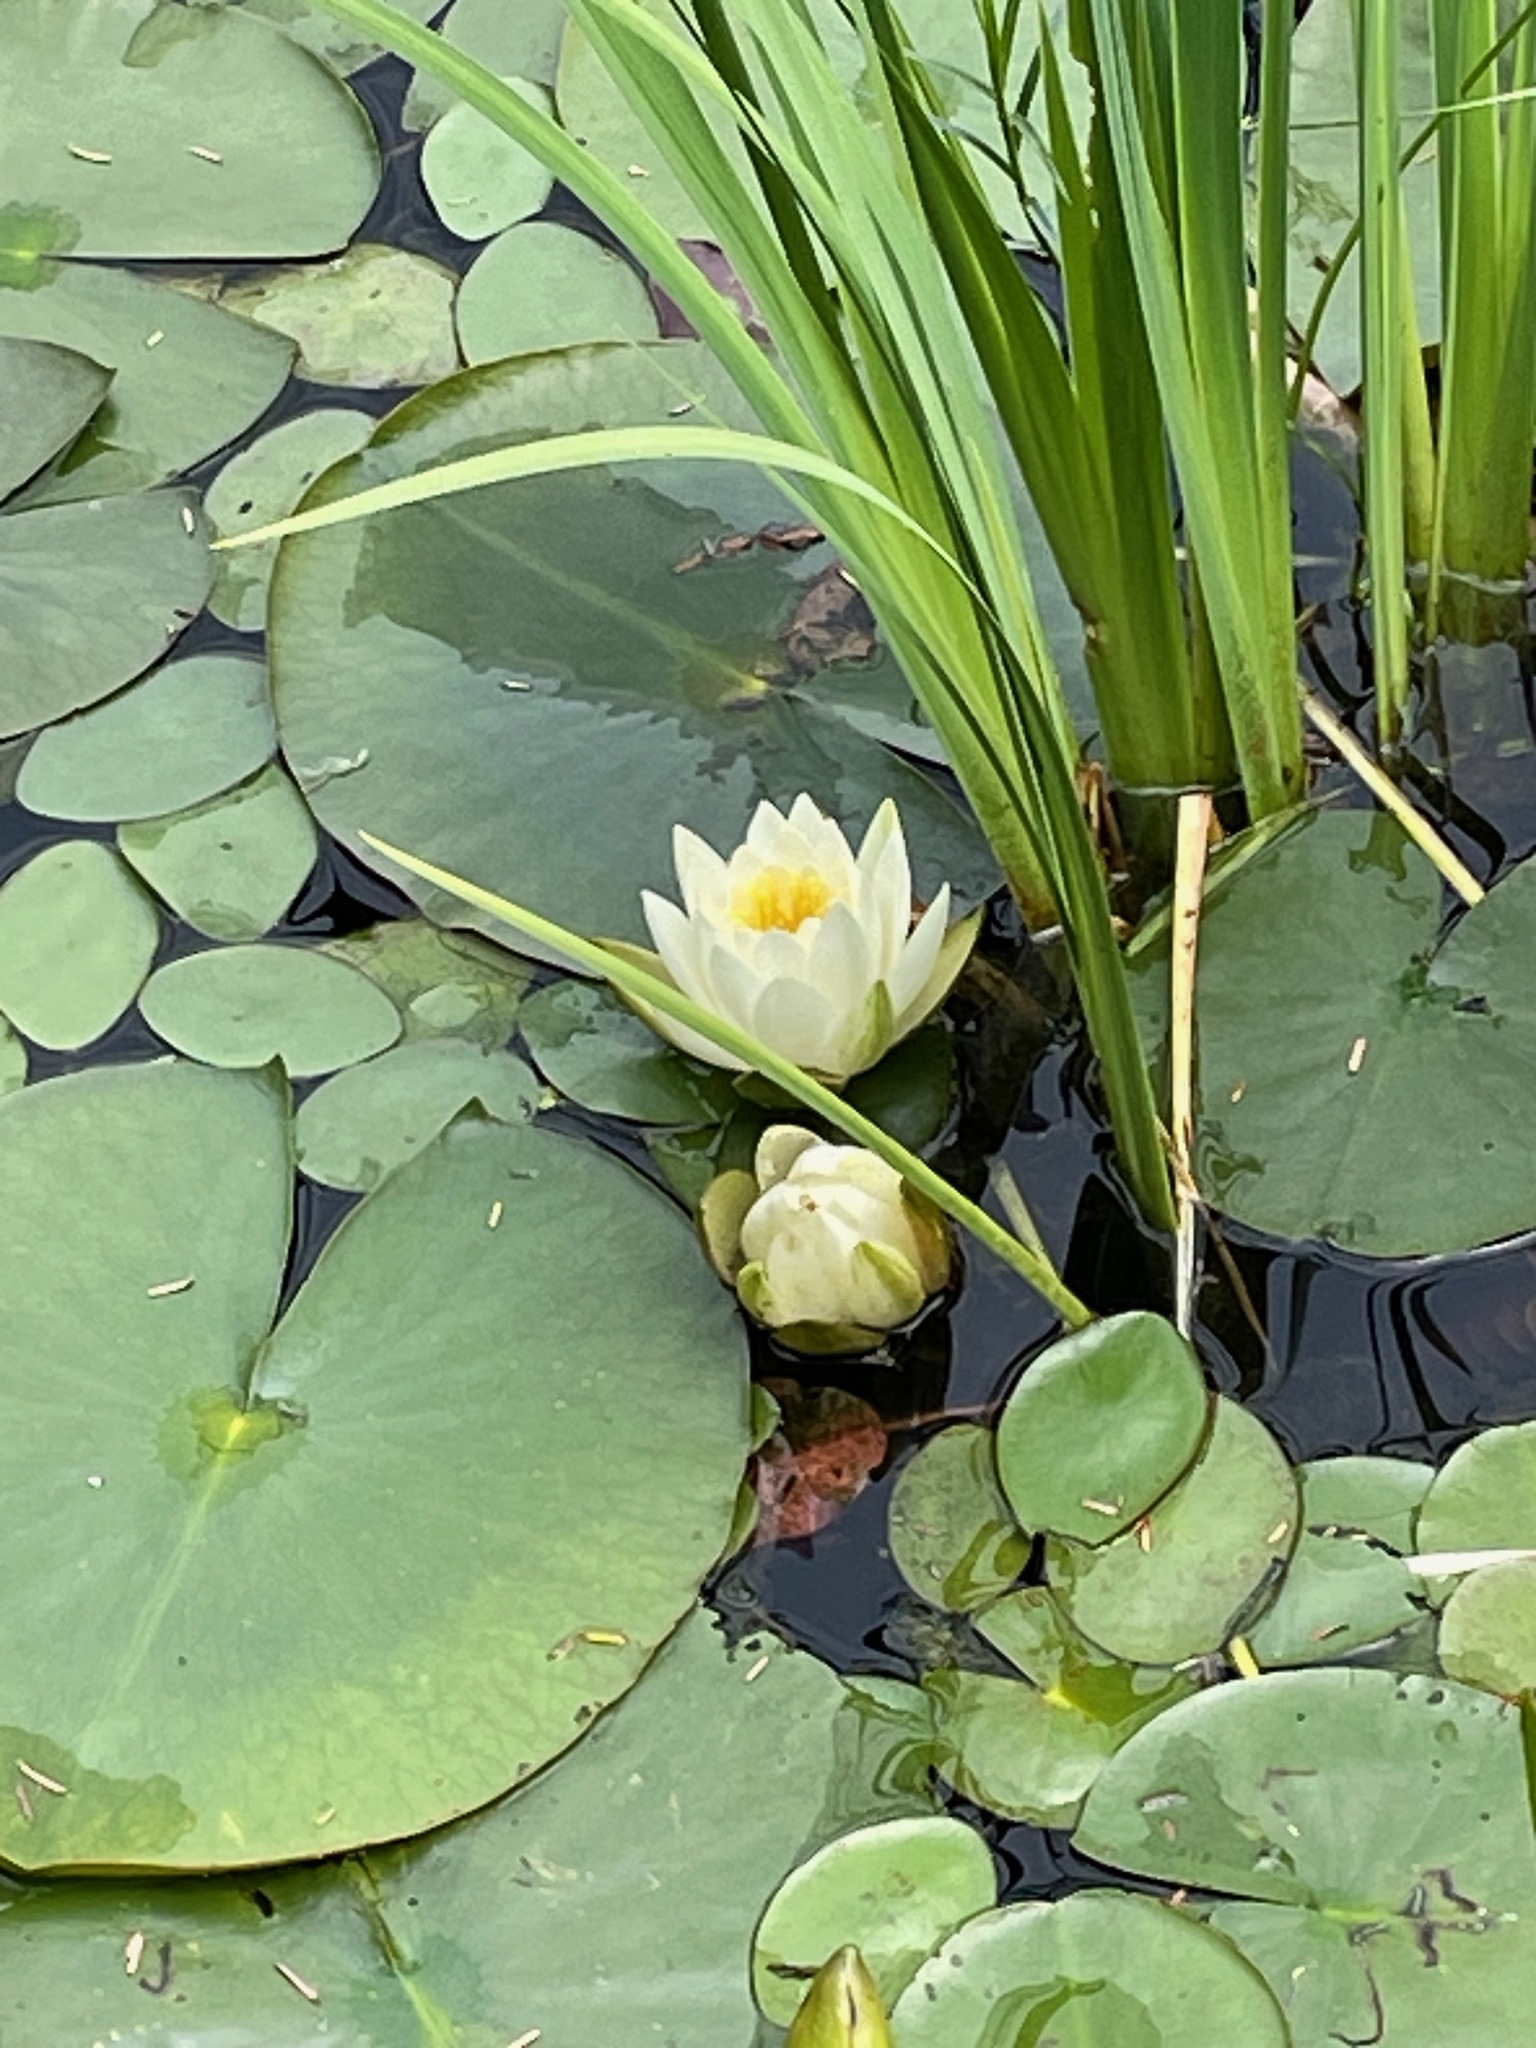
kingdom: Plantae
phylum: Tracheophyta
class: Magnoliopsida
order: Nymphaeales
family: Nymphaeaceae
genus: Nymphaea
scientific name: Nymphaea odorata
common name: Fragrant water-lily
